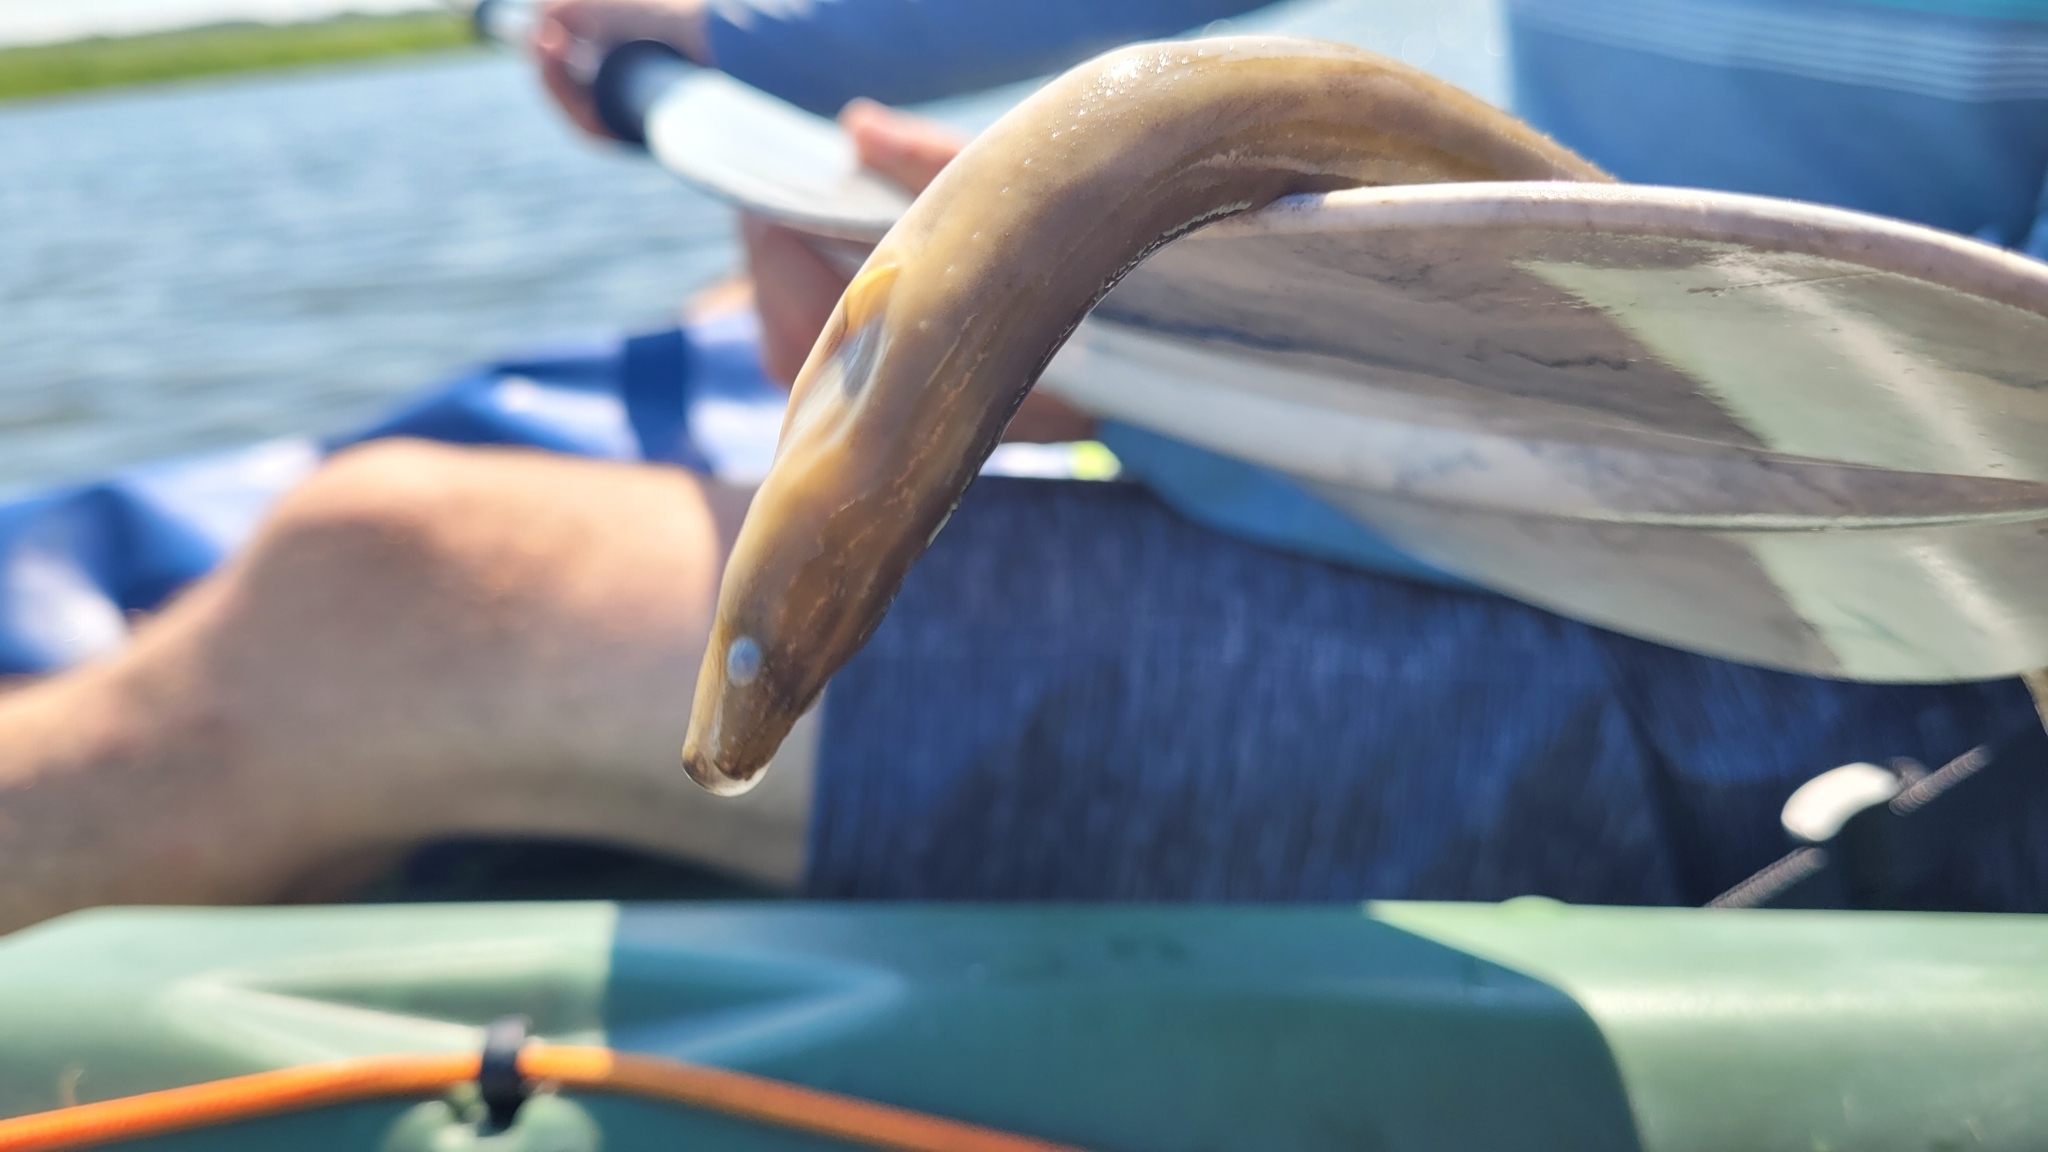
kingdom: Animalia
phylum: Chordata
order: Anguilliformes
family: Anguillidae
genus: Anguilla
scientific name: Anguilla rostrata
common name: American eel
